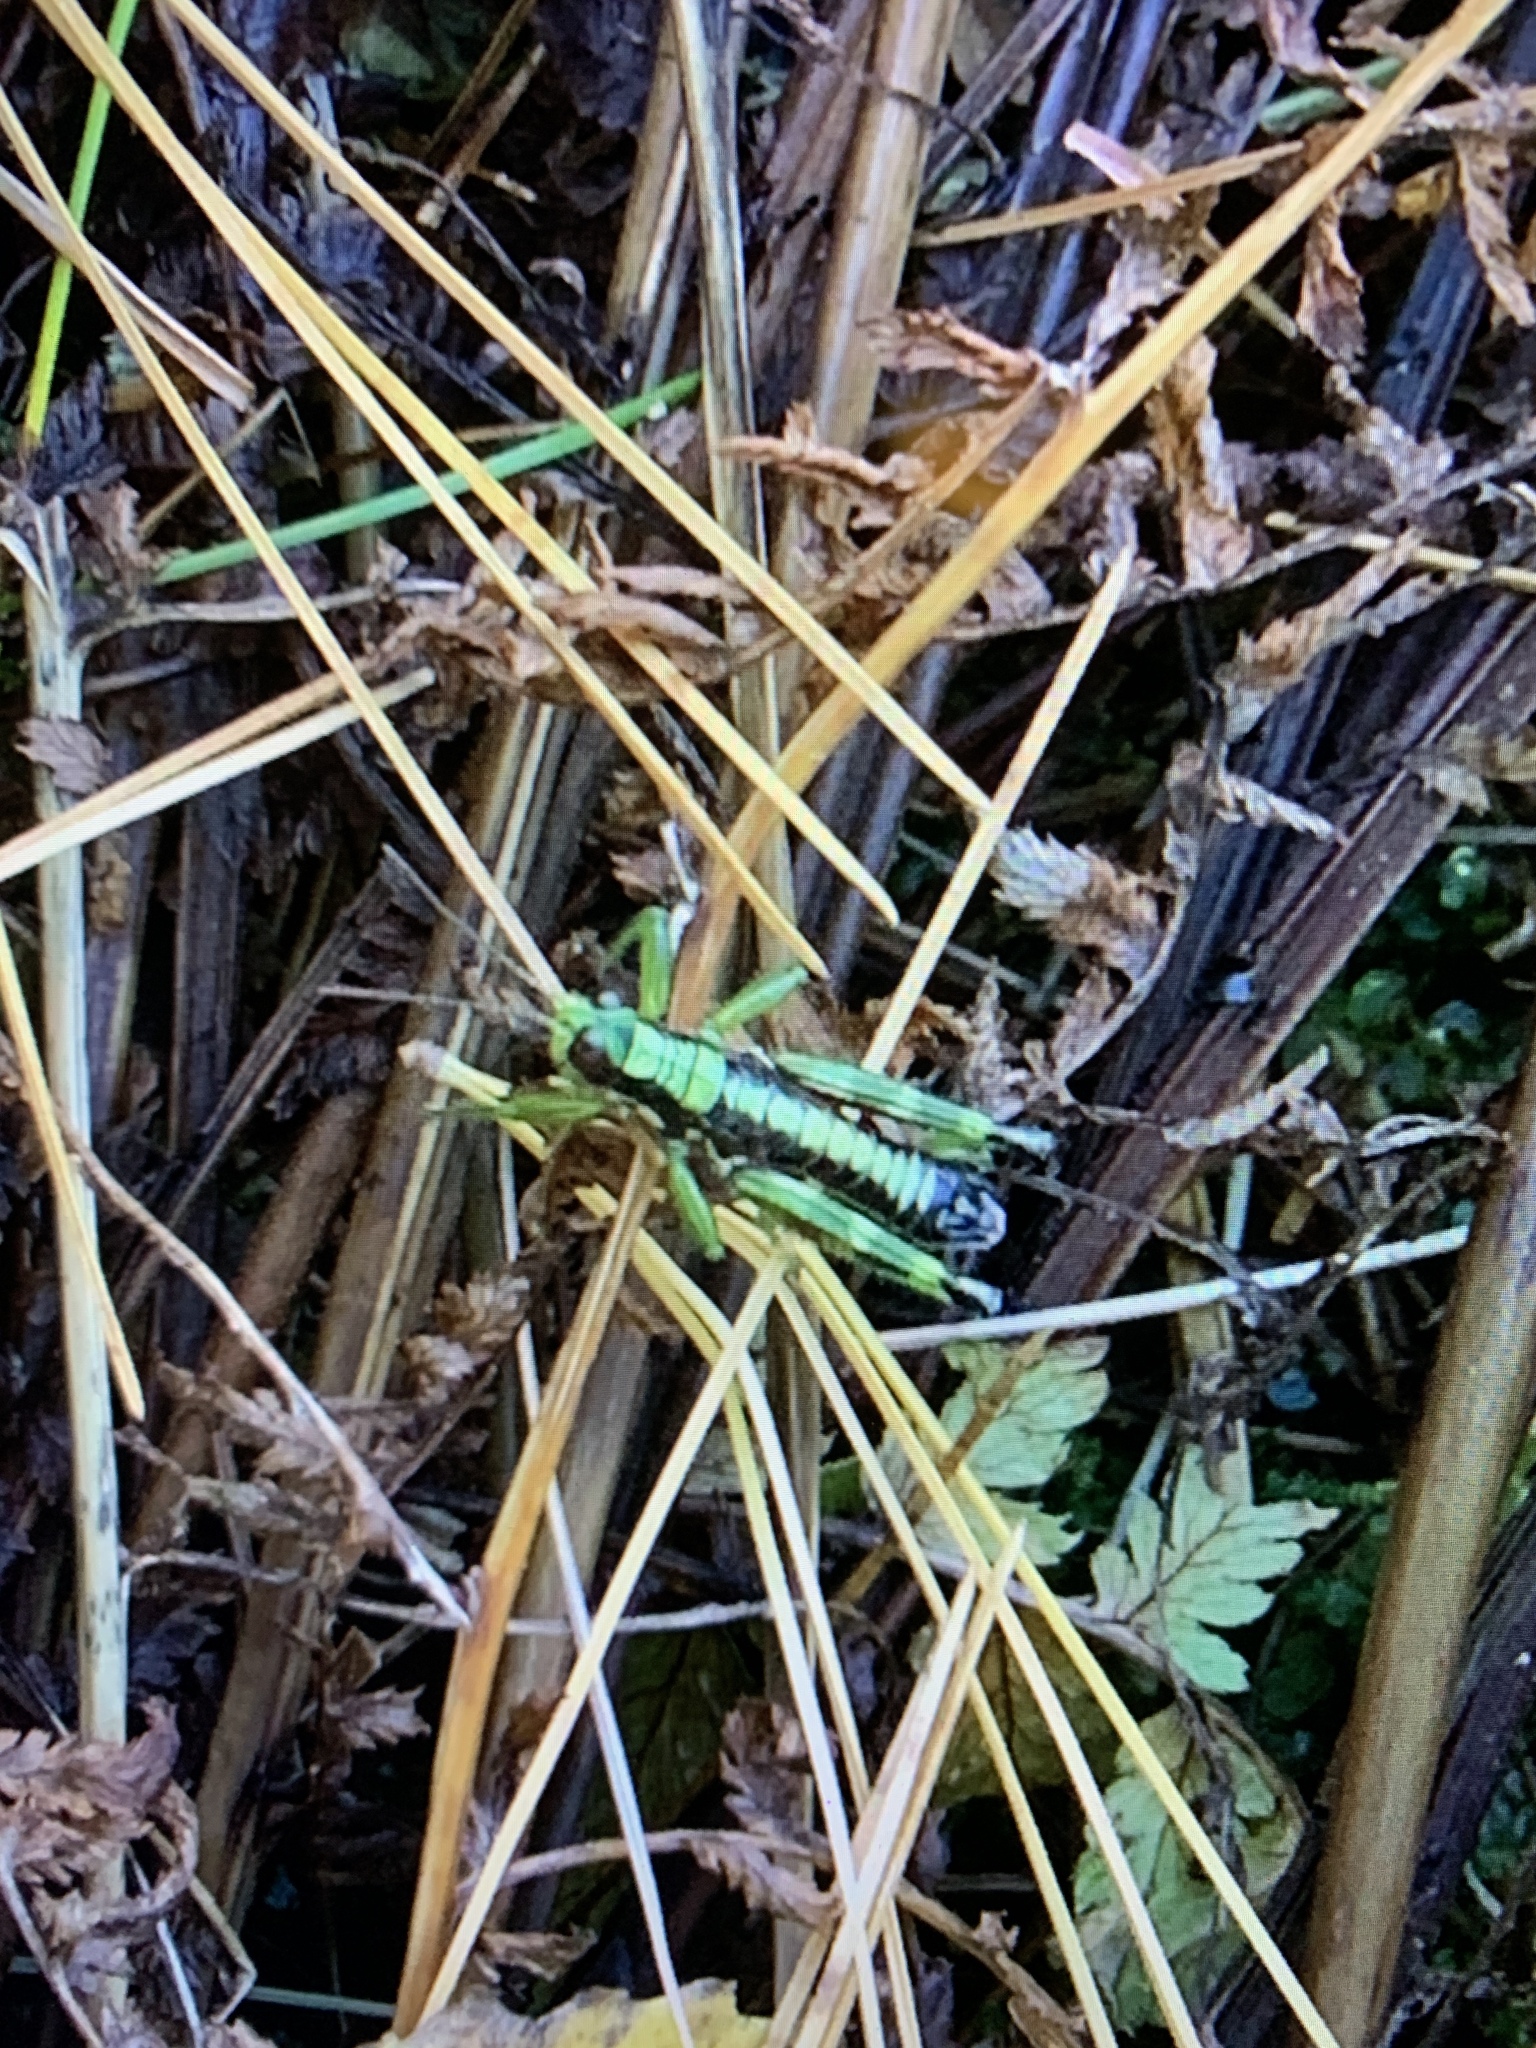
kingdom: Animalia
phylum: Arthropoda
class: Insecta
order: Orthoptera
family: Acrididae
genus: Booneacris
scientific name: Booneacris glacialis
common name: Wingless mountain grasshopper
